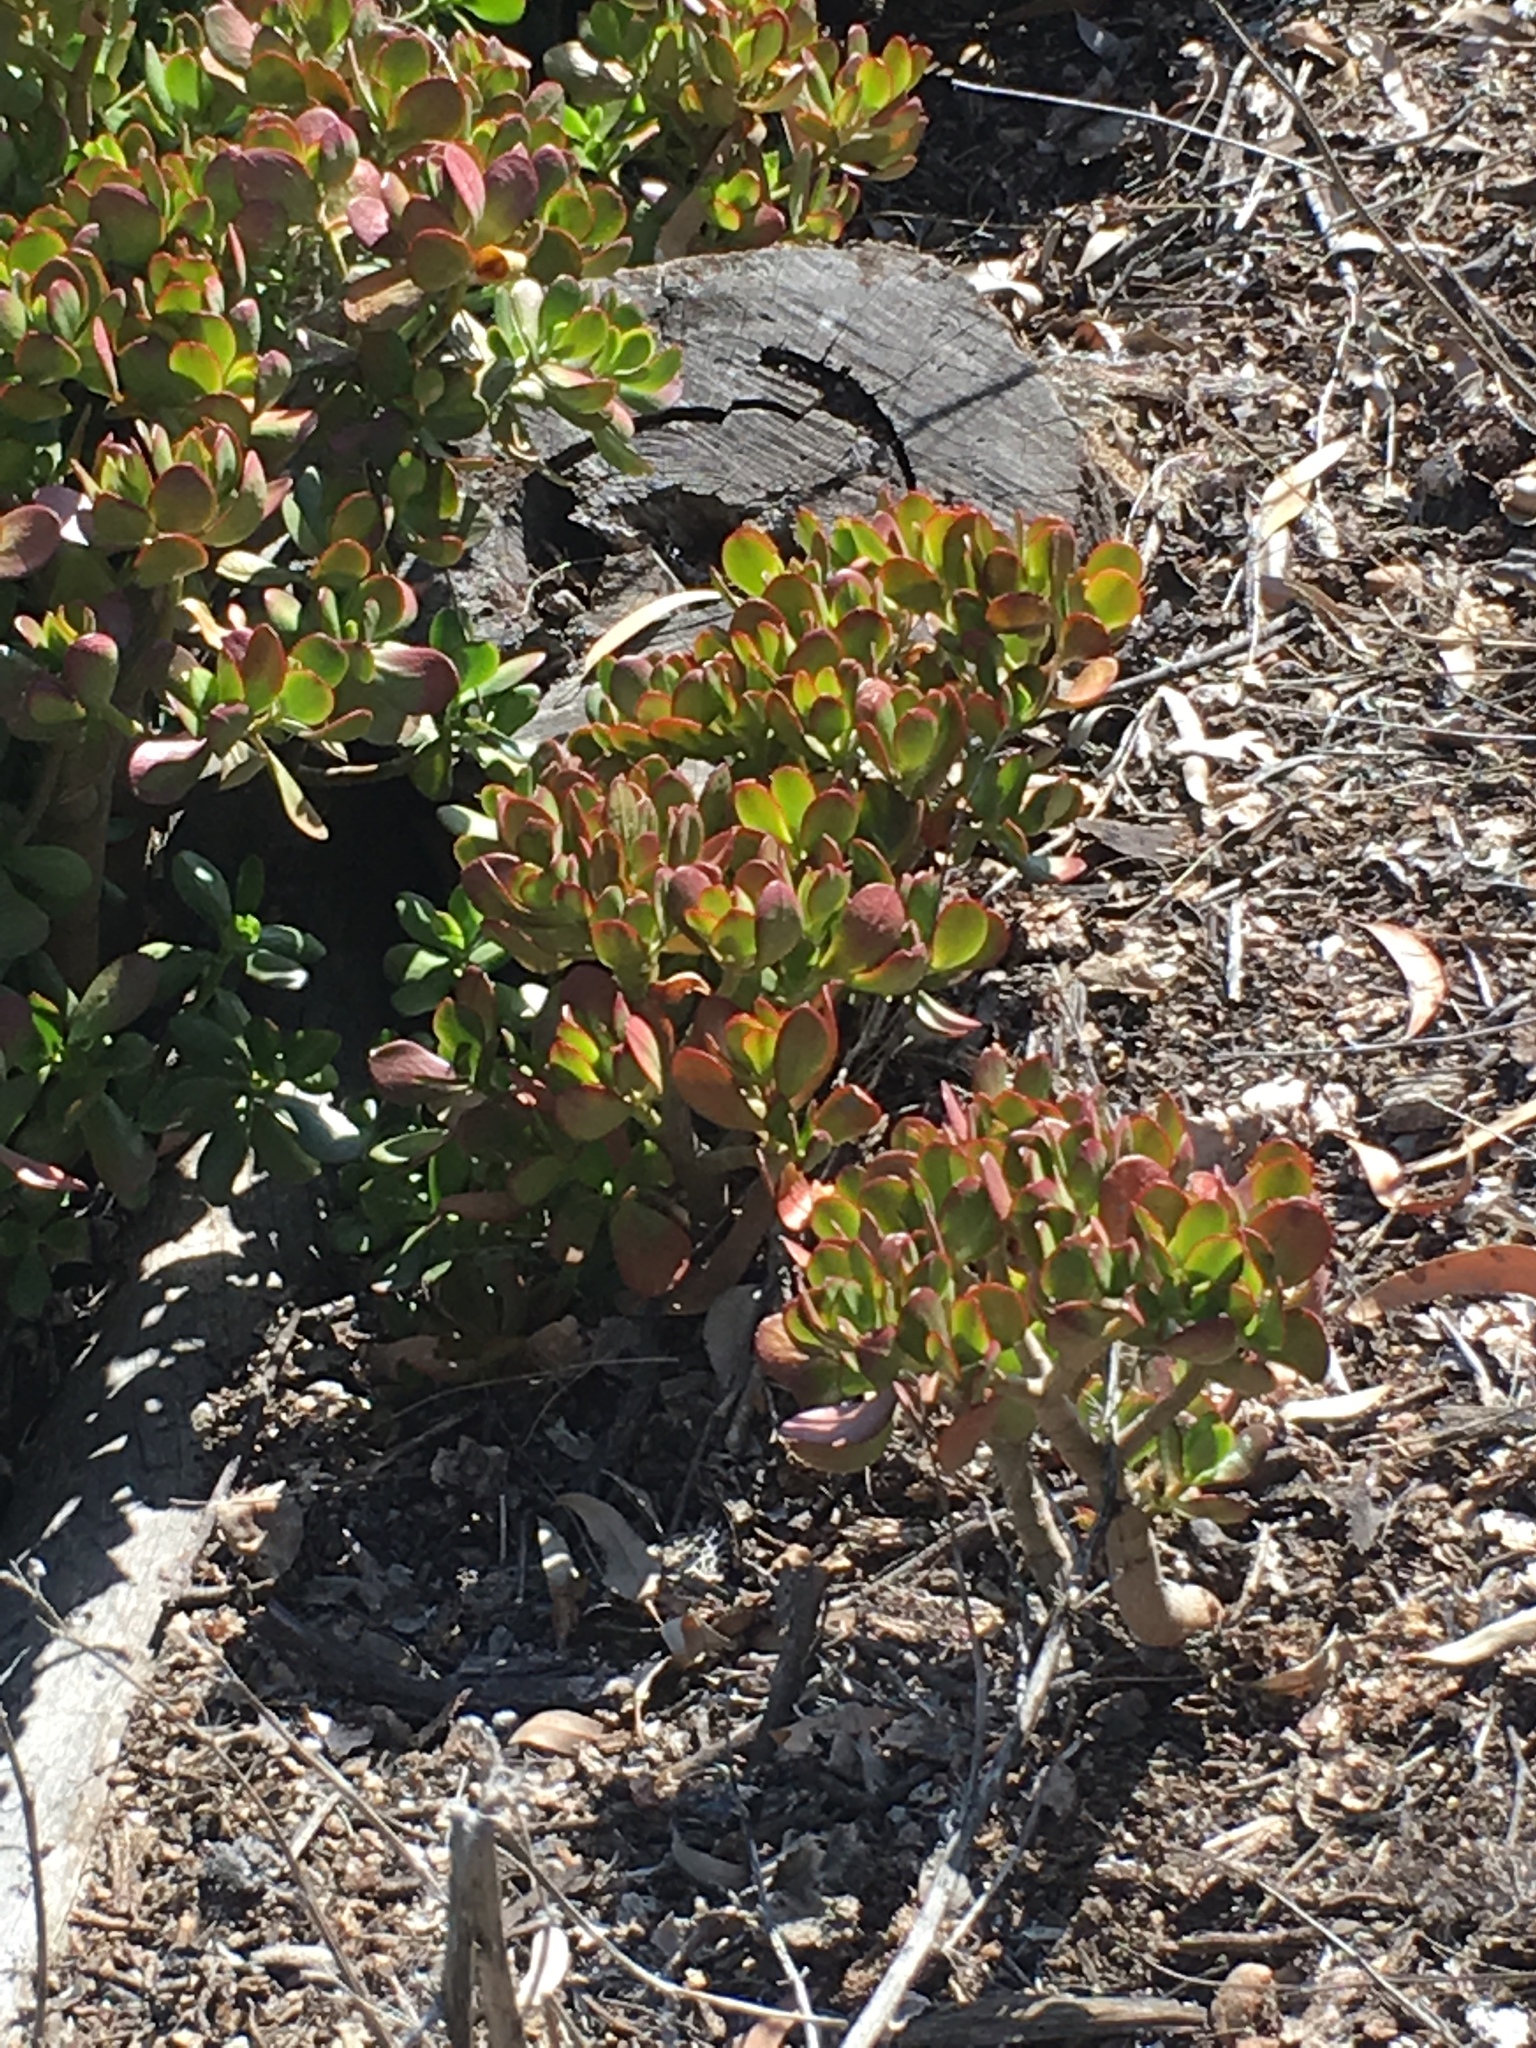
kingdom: Plantae
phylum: Tracheophyta
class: Magnoliopsida
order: Saxifragales
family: Crassulaceae
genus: Crassula
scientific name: Crassula ovata
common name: Jade plant
